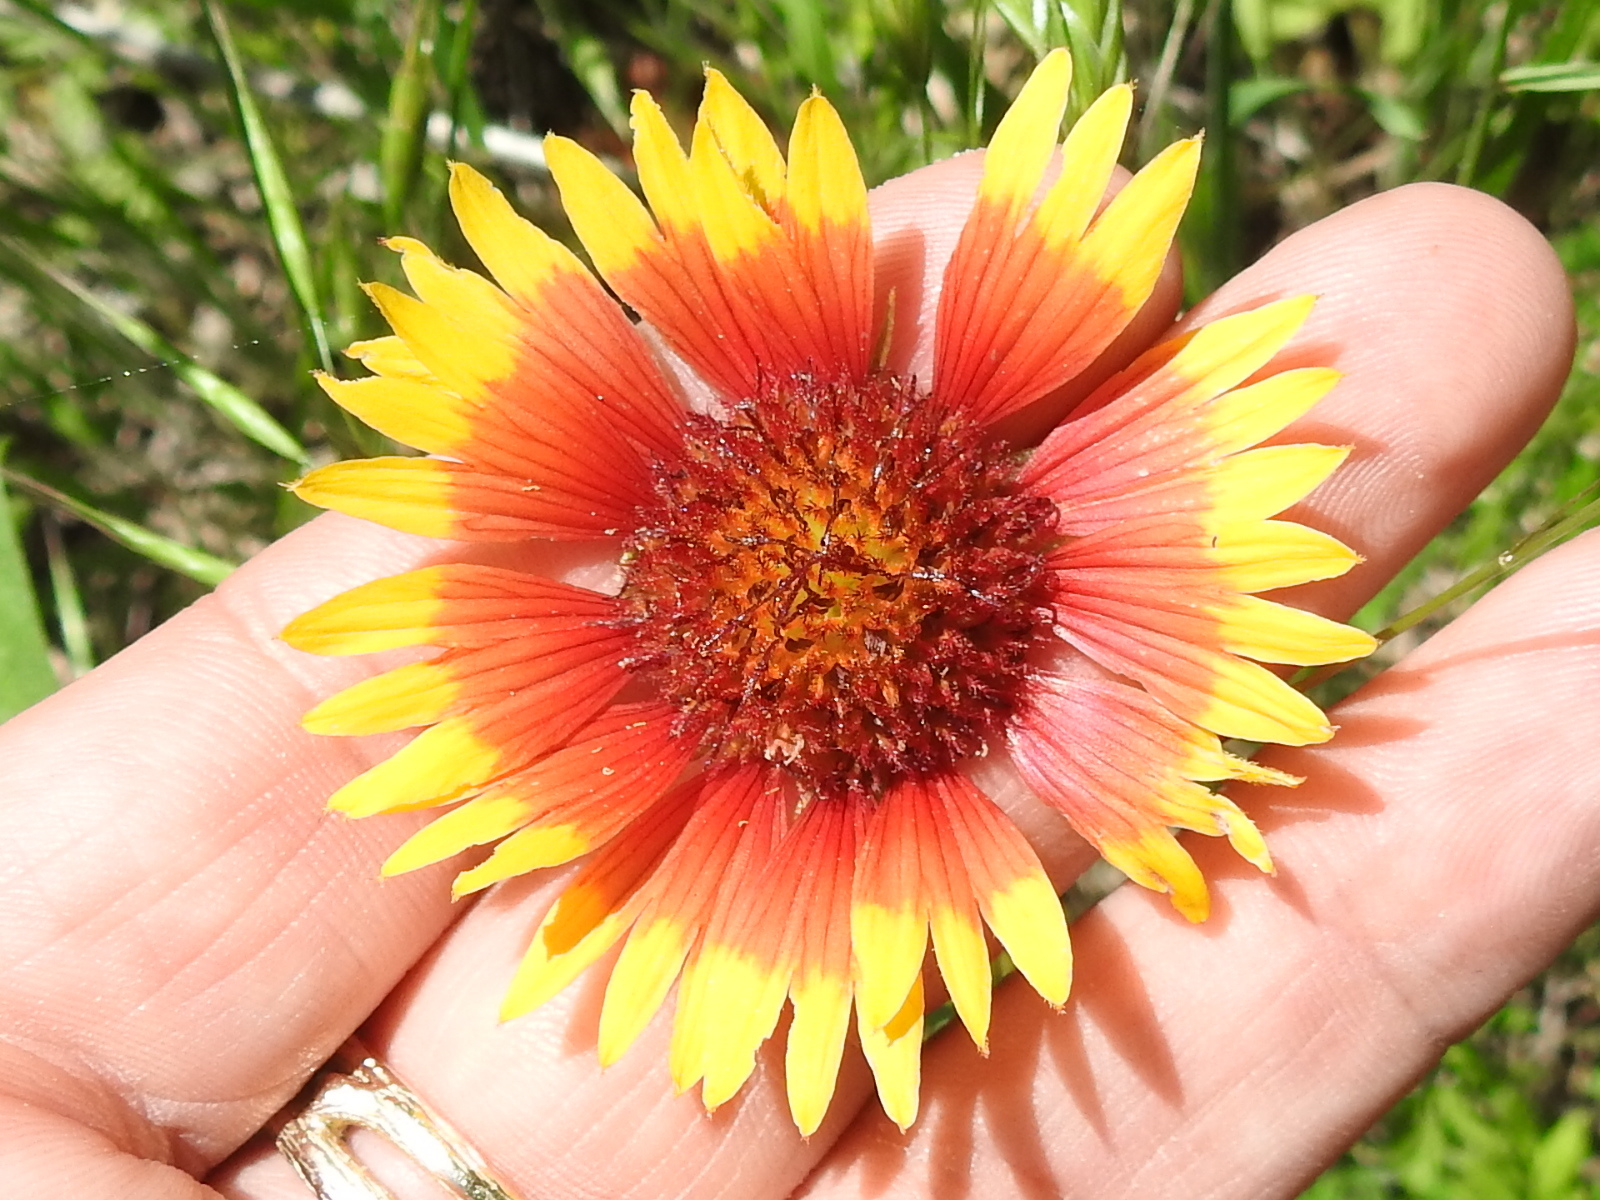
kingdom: Plantae
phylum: Tracheophyta
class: Magnoliopsida
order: Asterales
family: Asteraceae
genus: Gaillardia
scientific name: Gaillardia pulchella
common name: Firewheel
